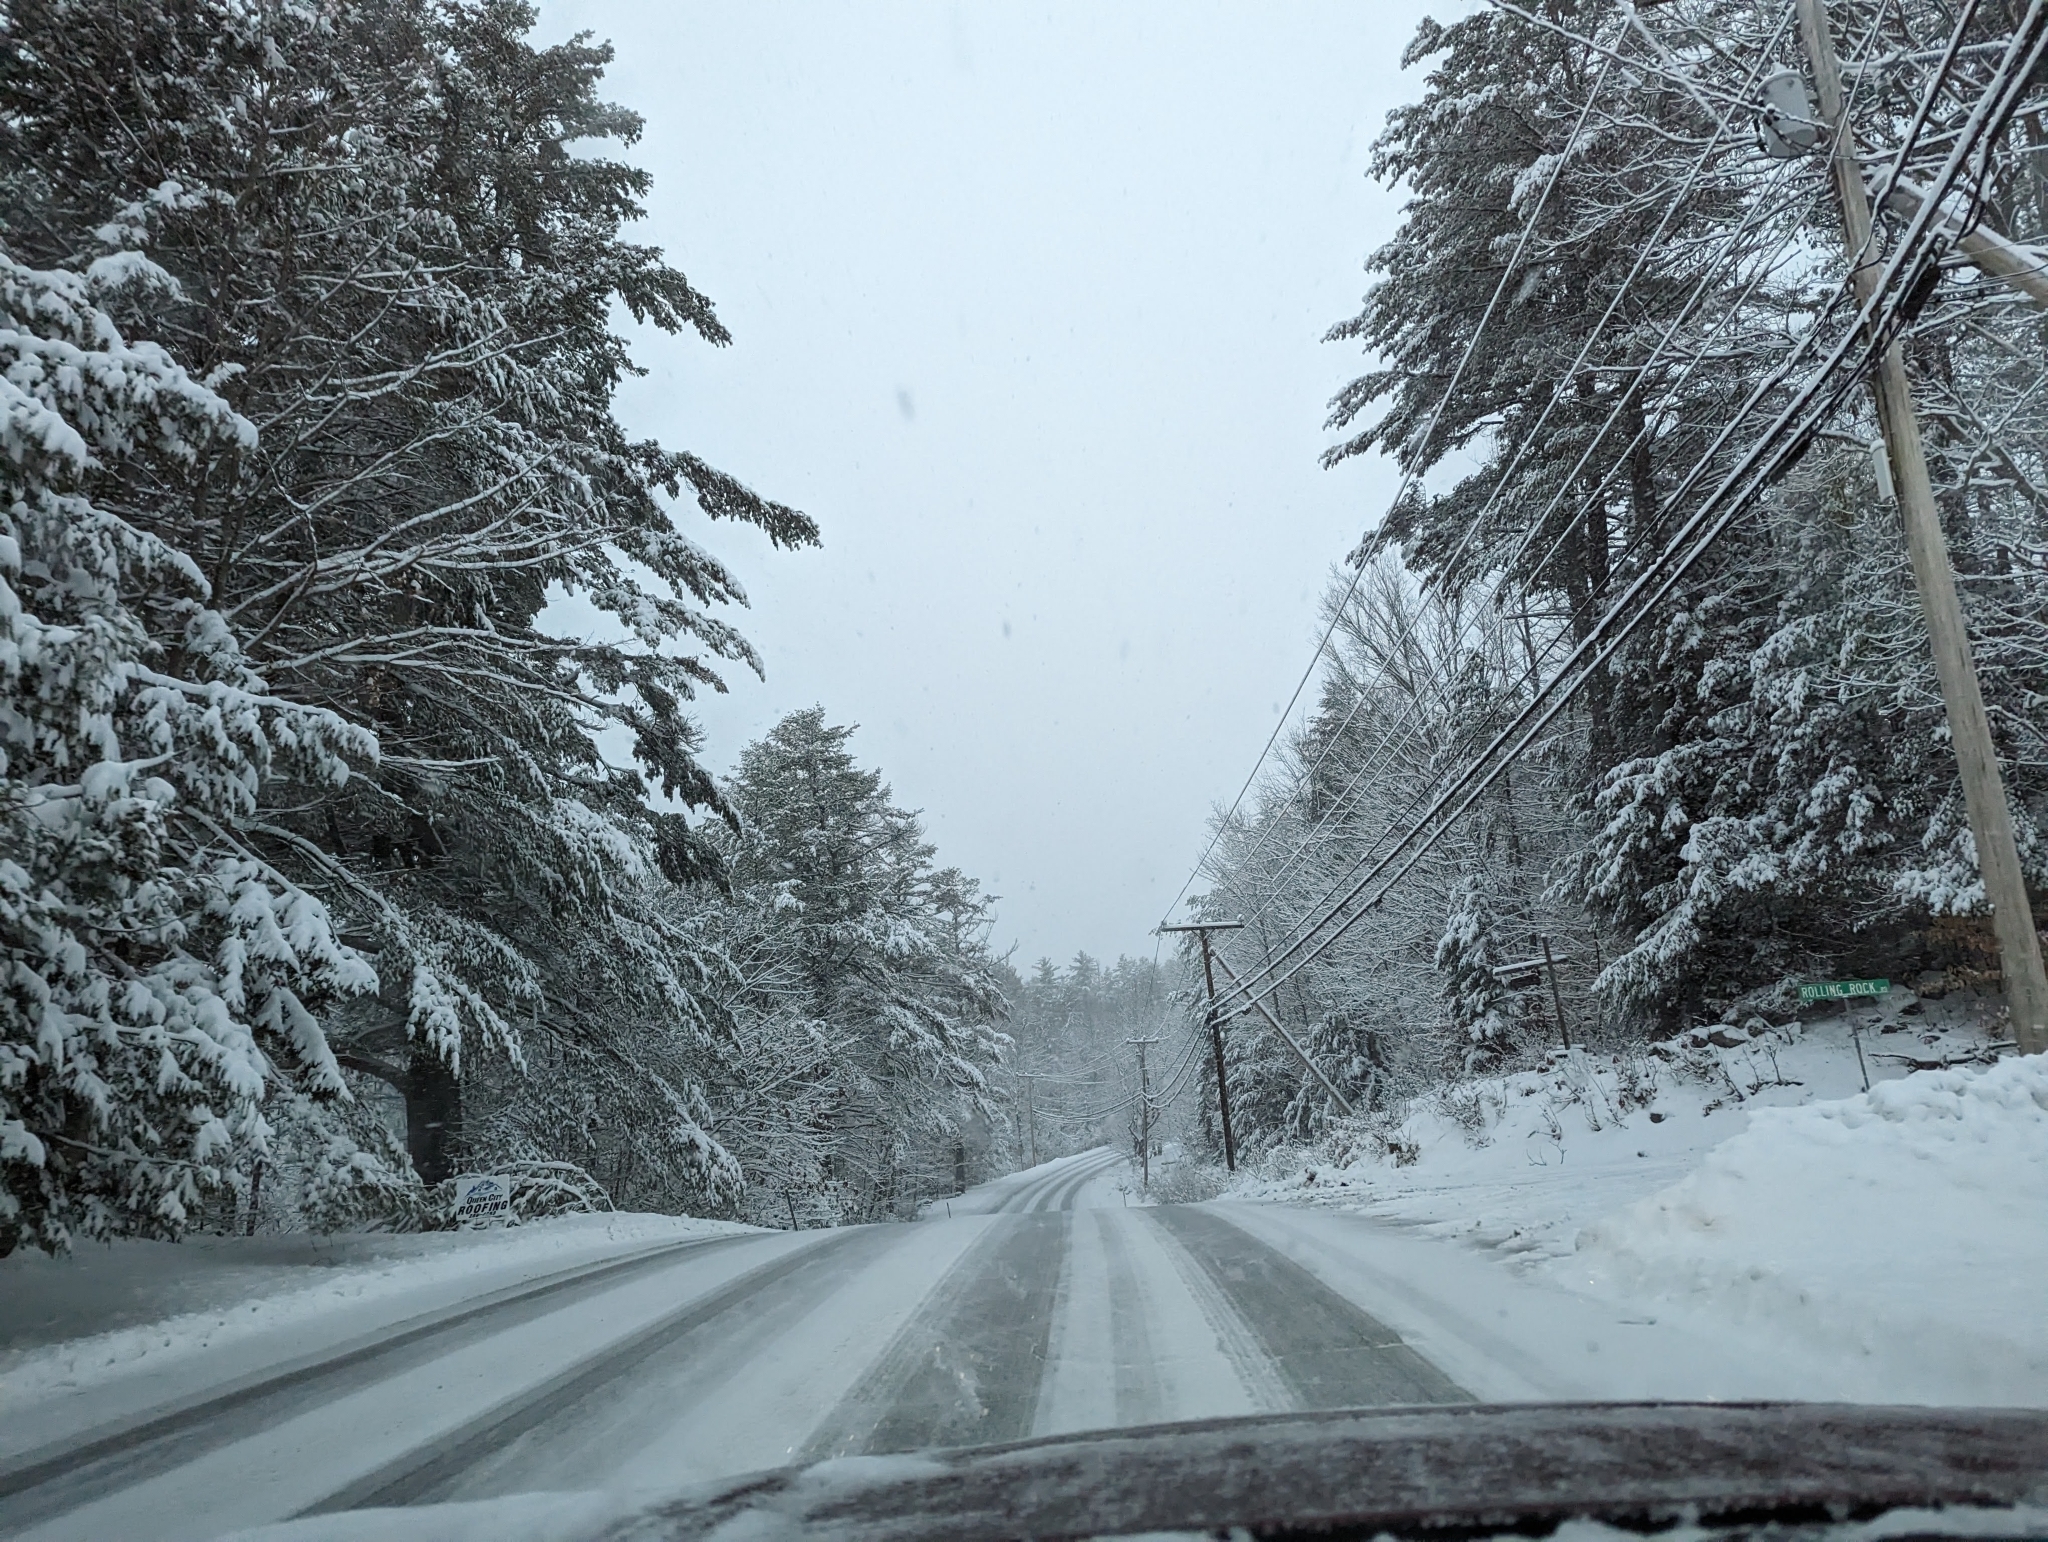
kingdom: Plantae
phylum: Tracheophyta
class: Pinopsida
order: Pinales
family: Pinaceae
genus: Pinus
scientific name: Pinus strobus
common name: Weymouth pine
